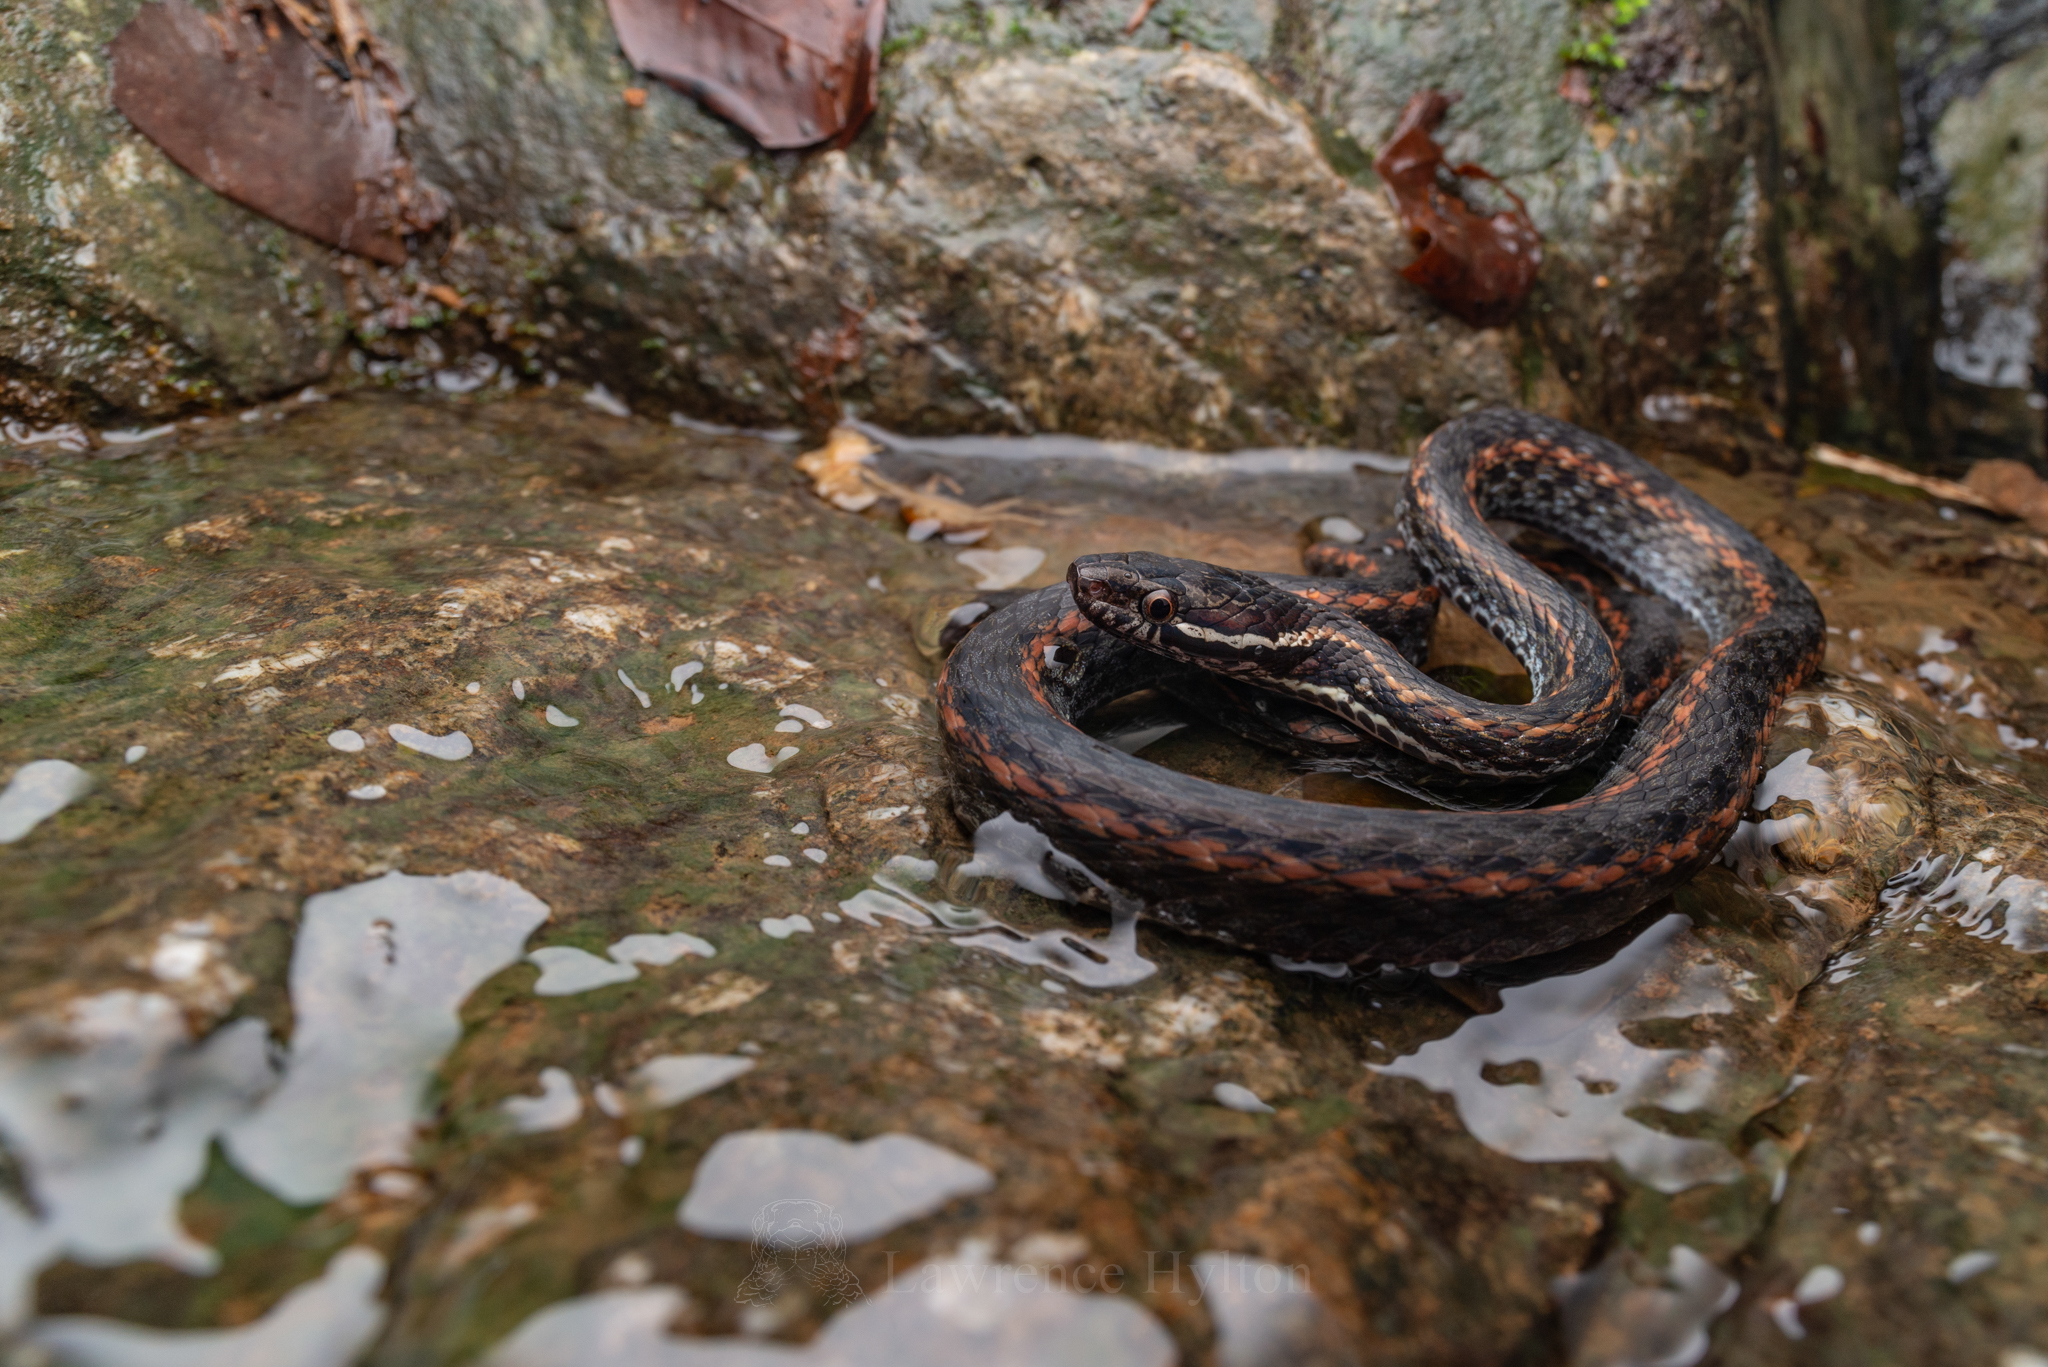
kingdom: Animalia
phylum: Chordata
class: Squamata
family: Colubridae
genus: Hebius
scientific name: Hebius boulengeri
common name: Boulenger's keelback
